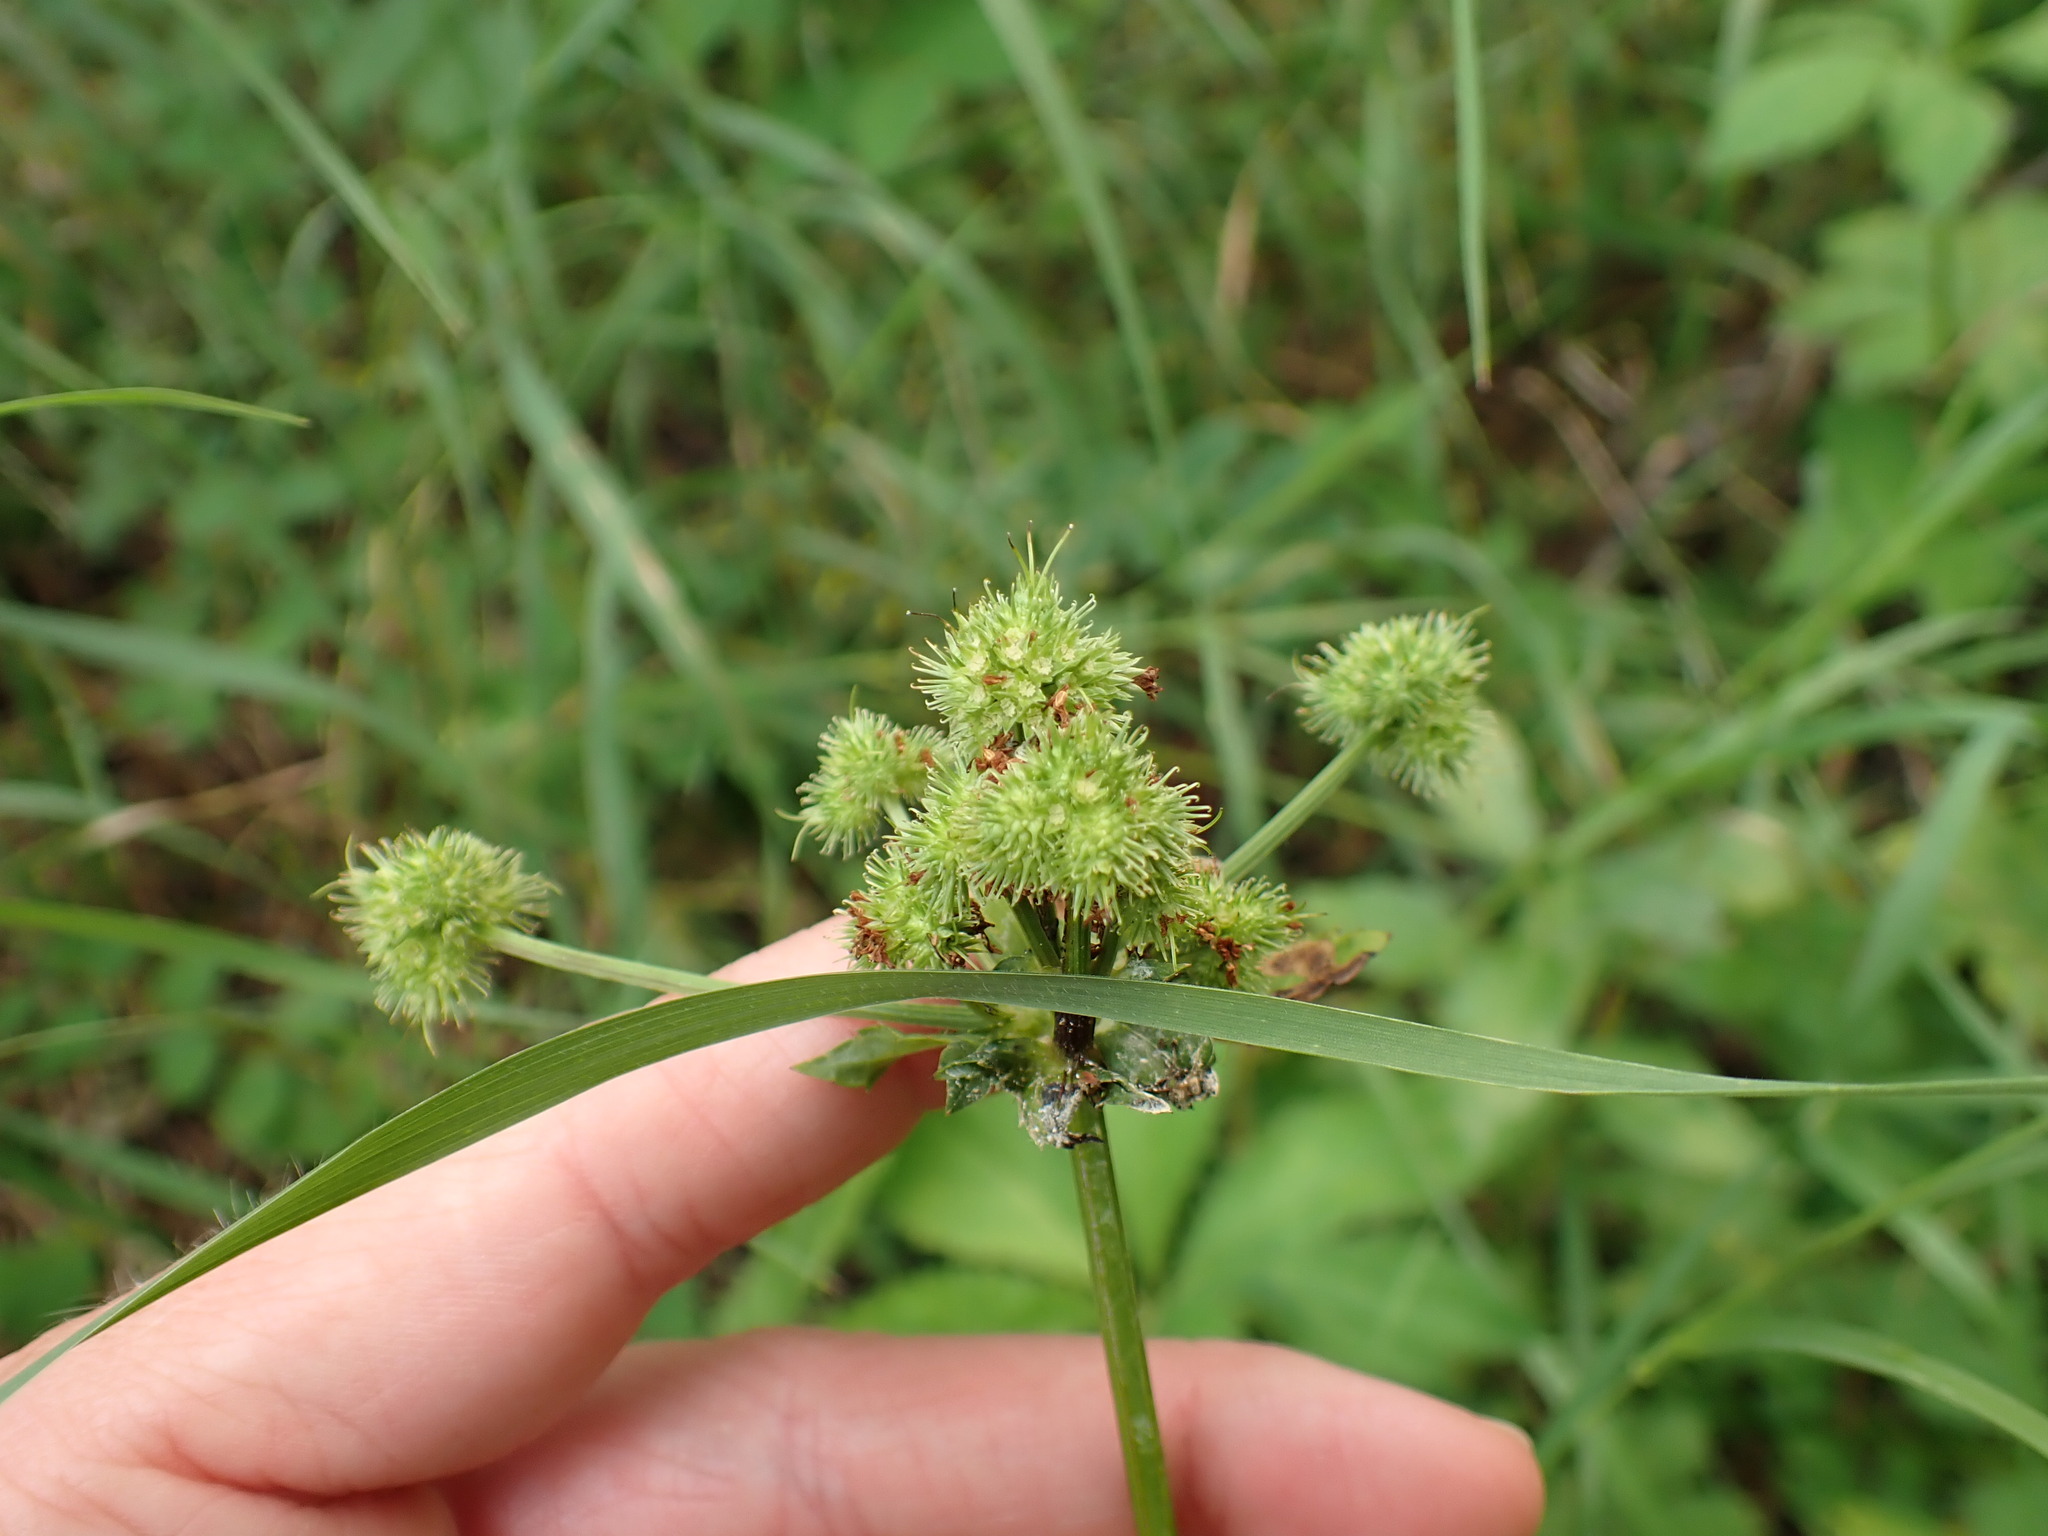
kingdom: Plantae
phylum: Tracheophyta
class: Magnoliopsida
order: Apiales
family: Apiaceae
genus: Sanicula
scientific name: Sanicula marilandica
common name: Black snakeroot
